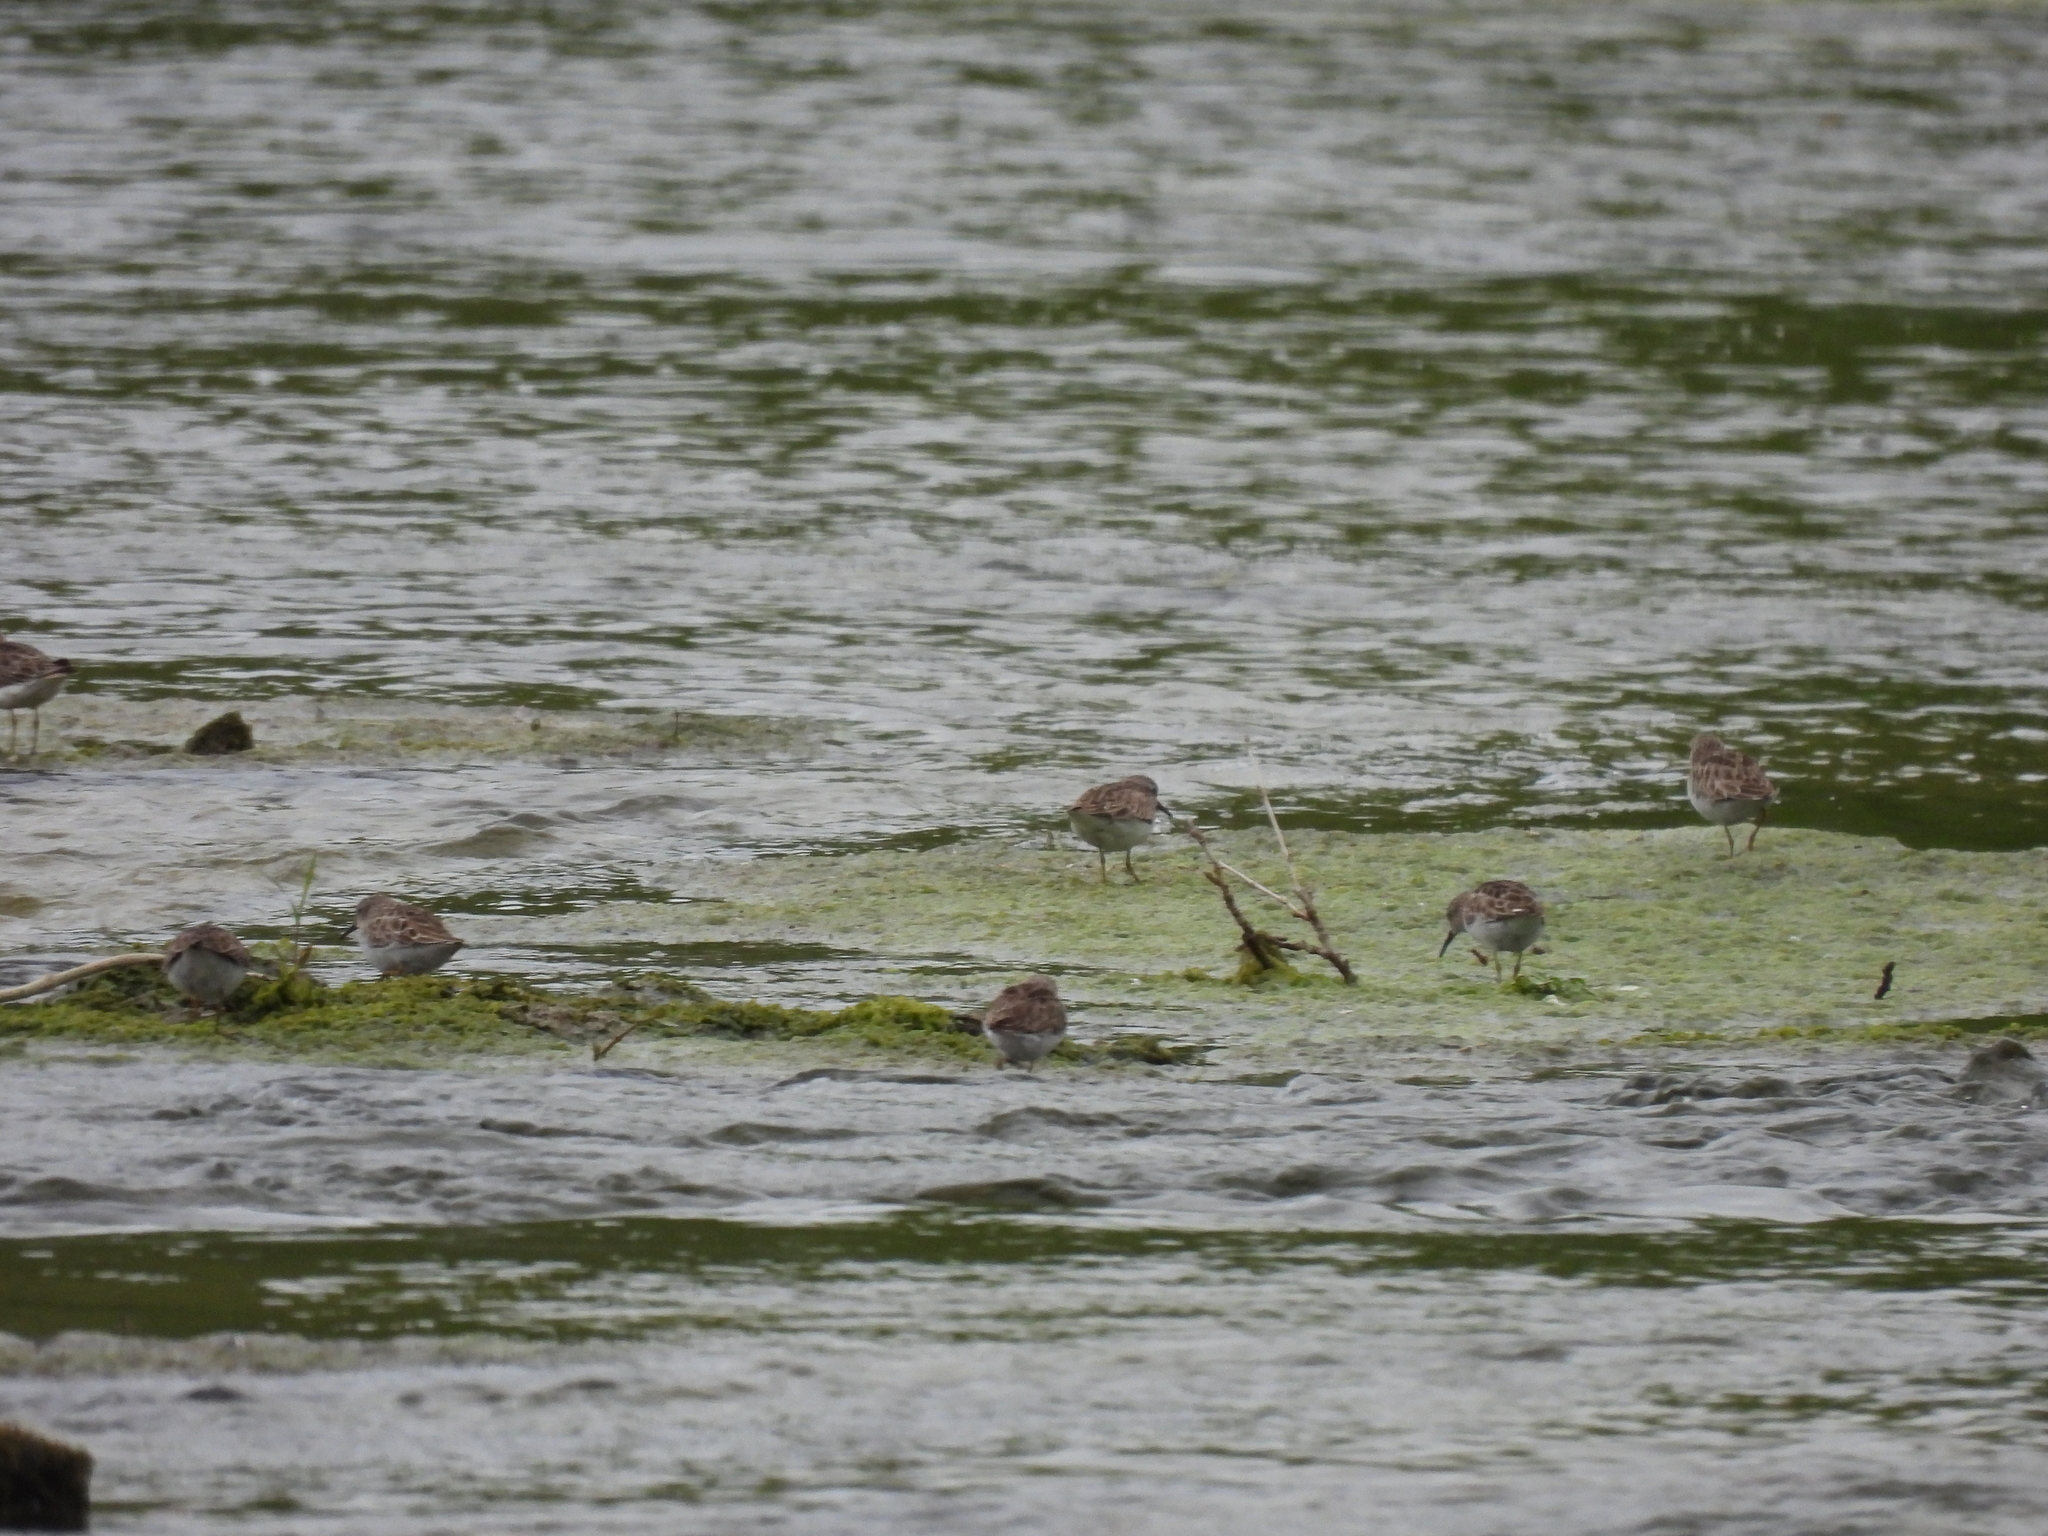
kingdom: Animalia
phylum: Chordata
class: Aves
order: Charadriiformes
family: Scolopacidae
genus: Calidris
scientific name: Calidris minutilla
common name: Least sandpiper
